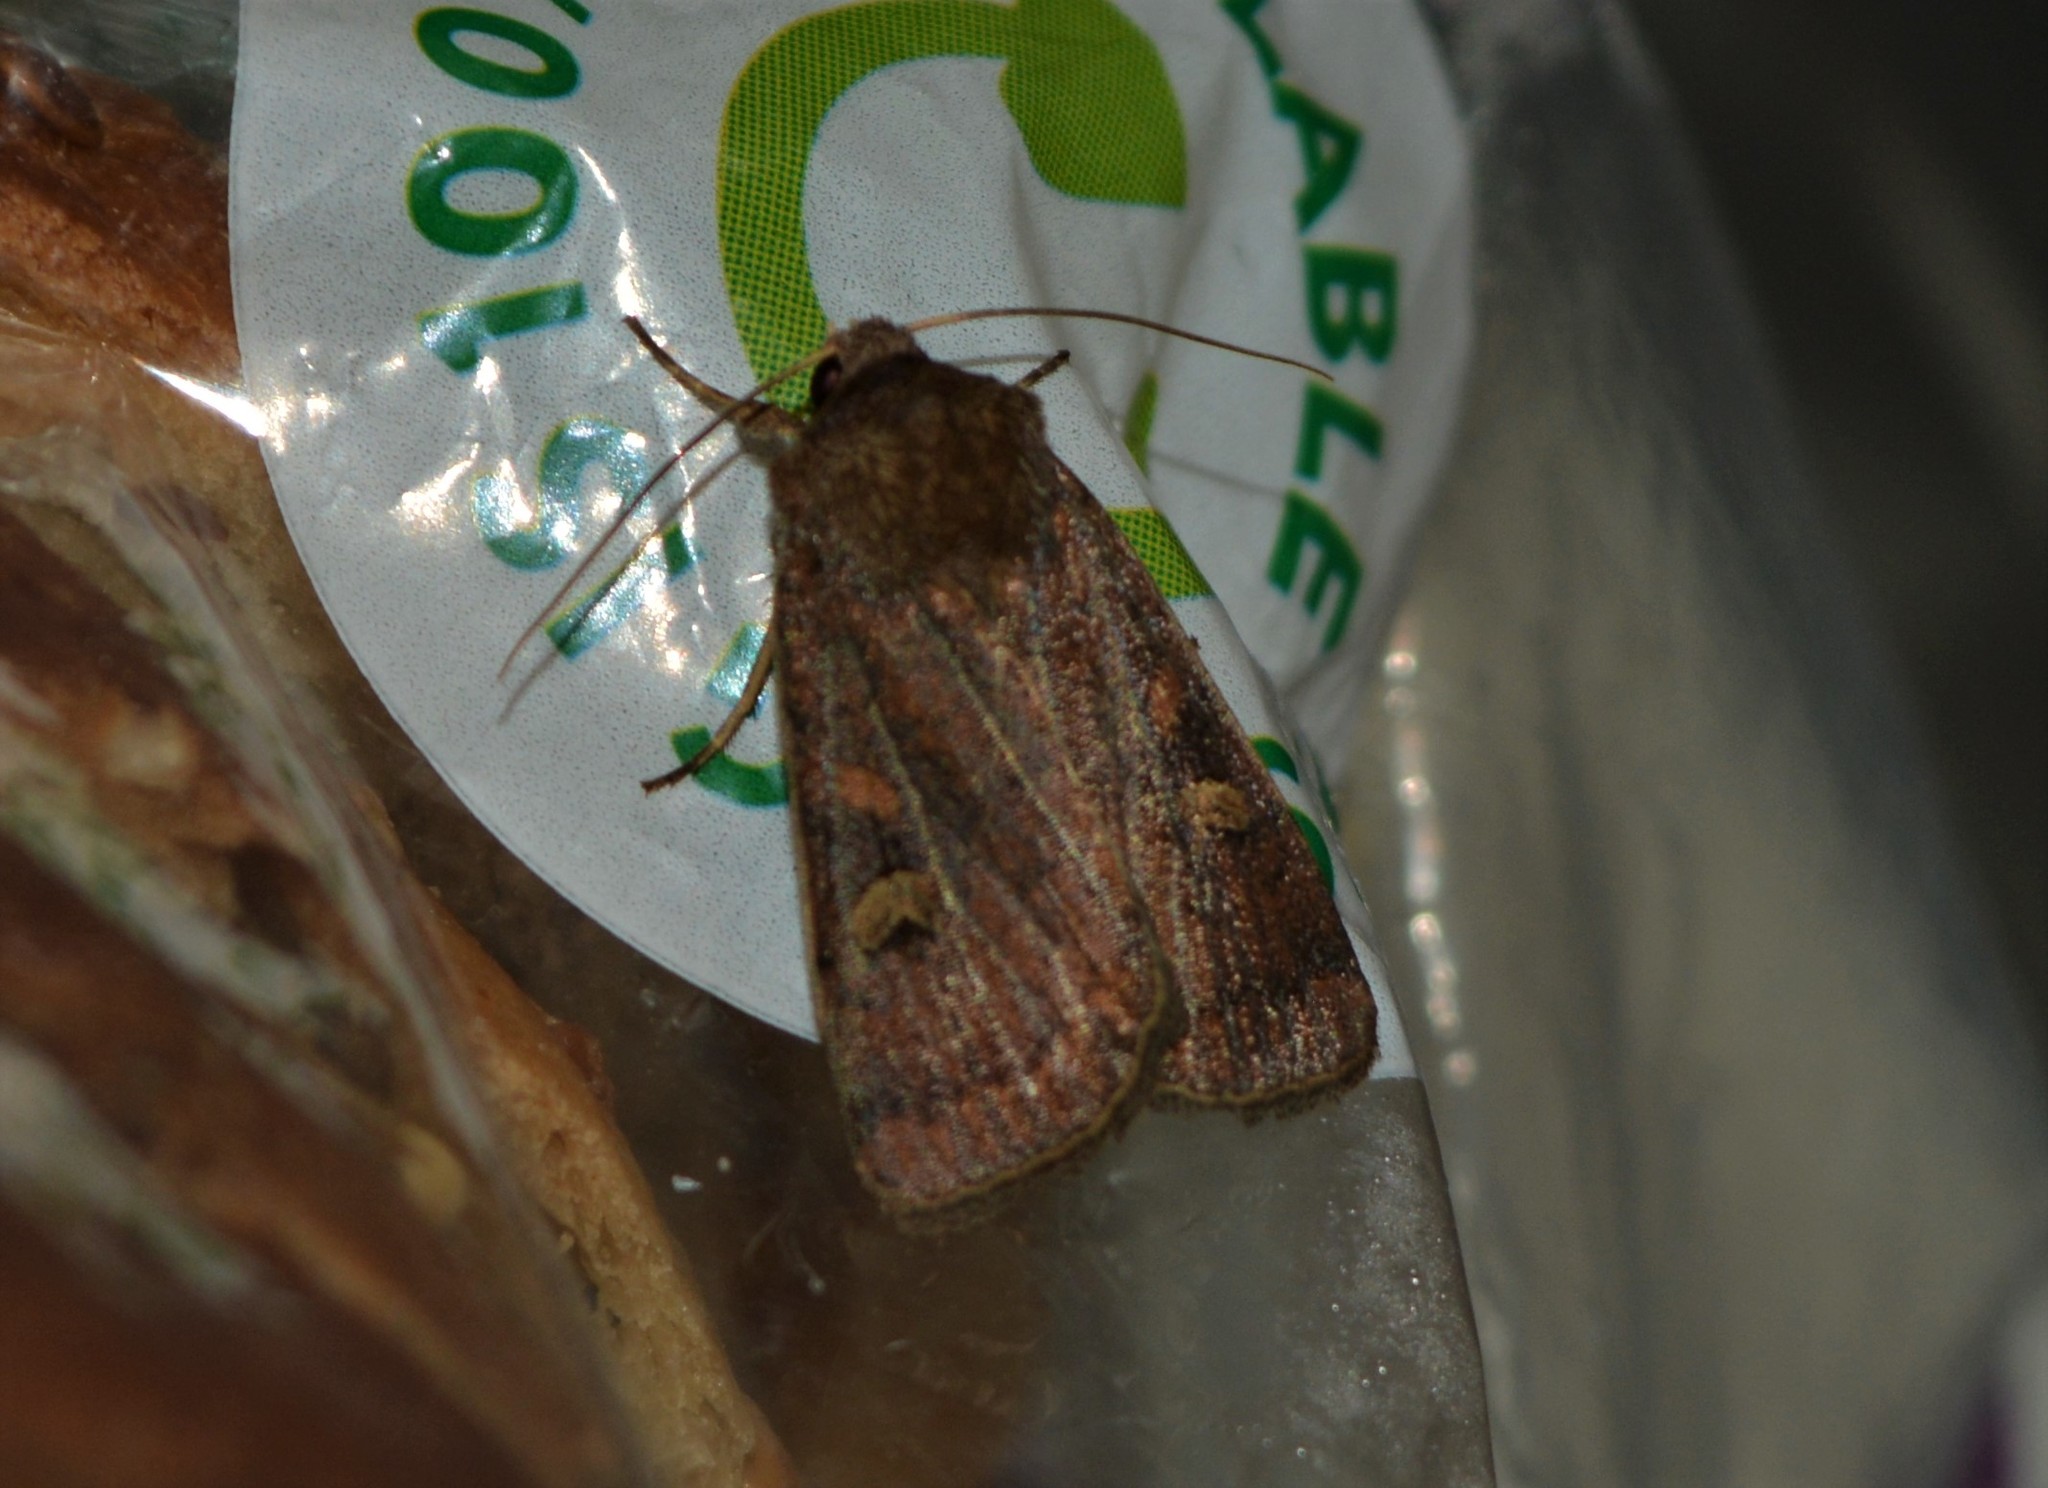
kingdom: Animalia
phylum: Arthropoda
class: Insecta
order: Lepidoptera
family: Noctuidae
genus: Xestia
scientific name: Xestia xanthographa
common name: Square-spot rustic
